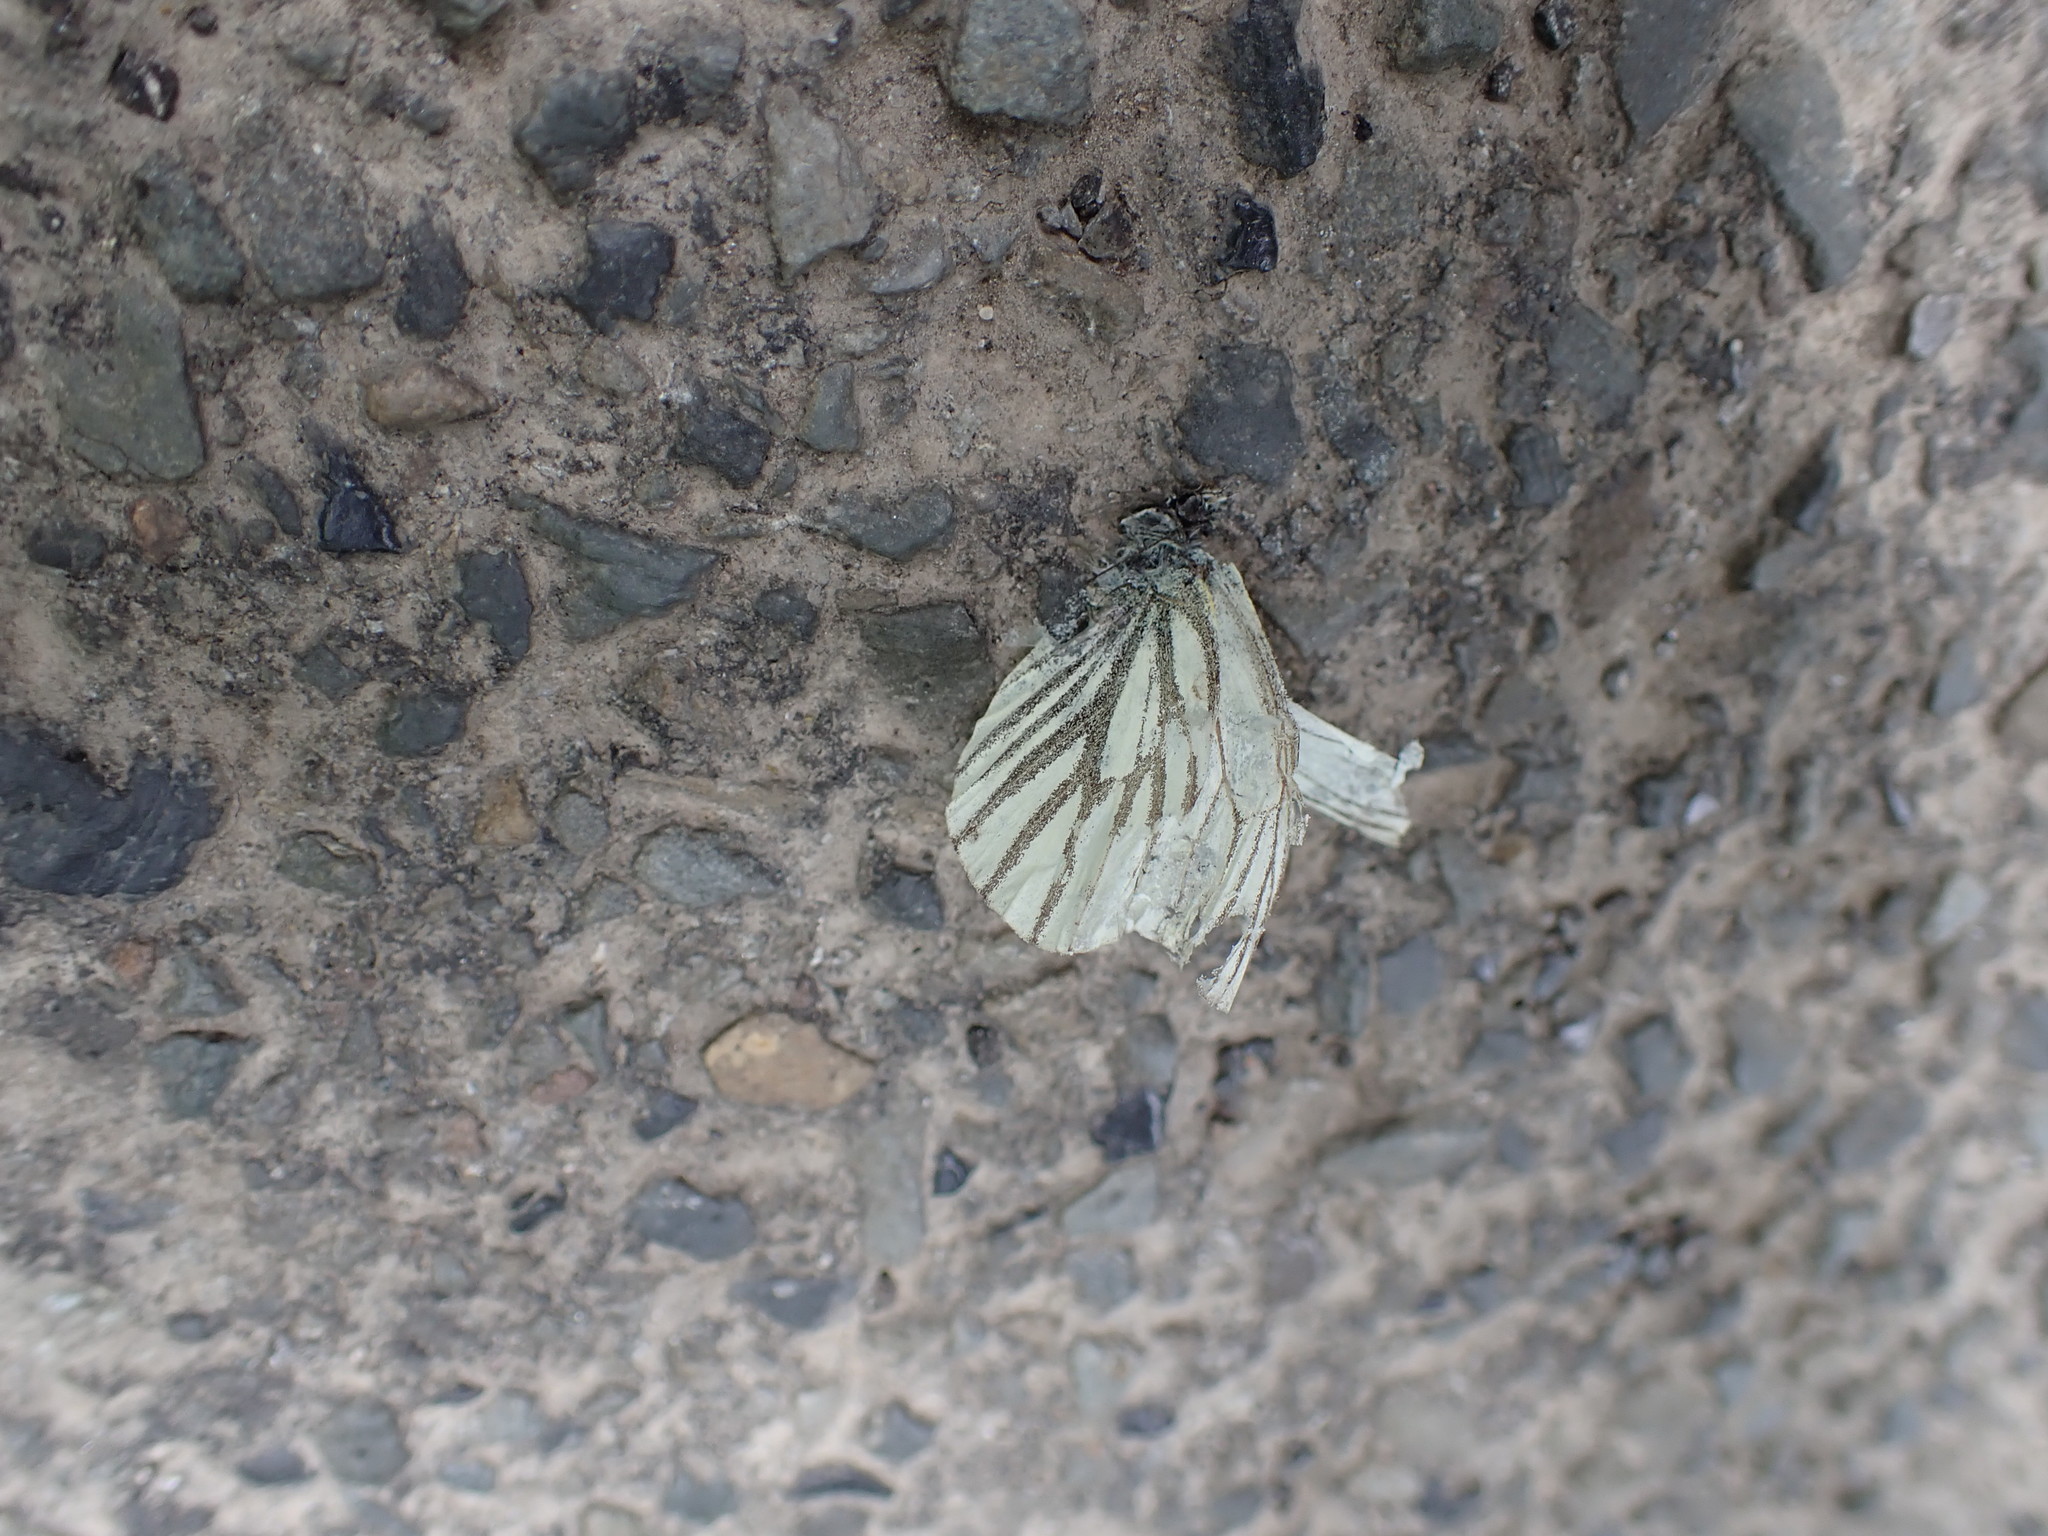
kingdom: Animalia
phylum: Arthropoda
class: Insecta
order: Lepidoptera
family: Pieridae
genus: Pieris
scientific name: Pieris napi
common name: Green-veined white
